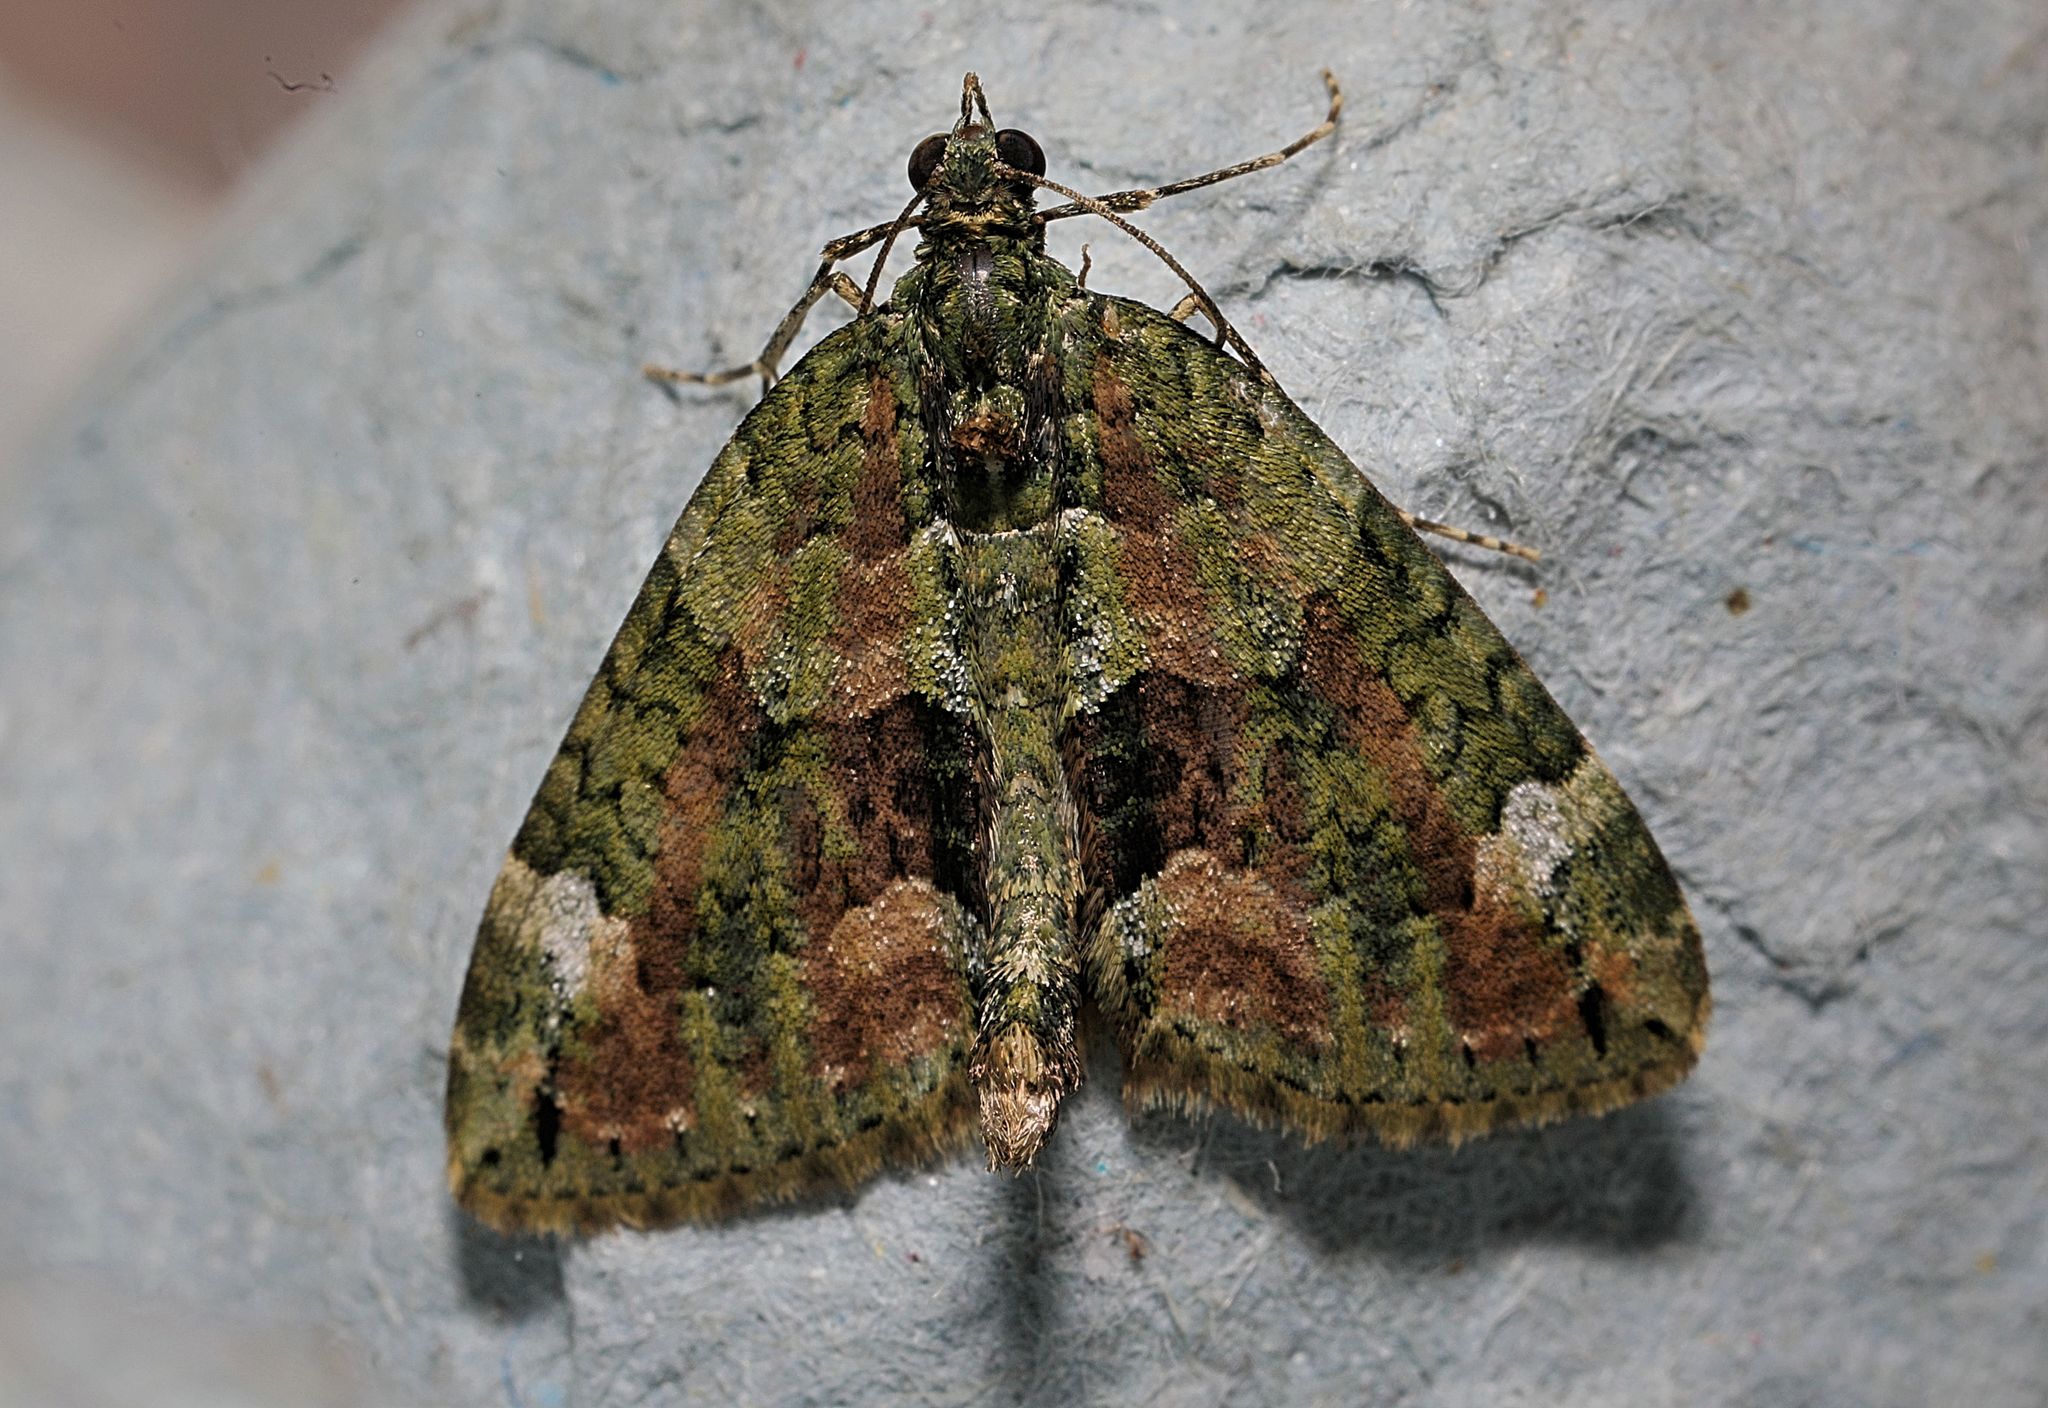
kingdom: Animalia
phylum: Arthropoda
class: Insecta
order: Lepidoptera
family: Geometridae
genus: Chloroclysta
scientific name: Chloroclysta siterata
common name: Red-green carpet
